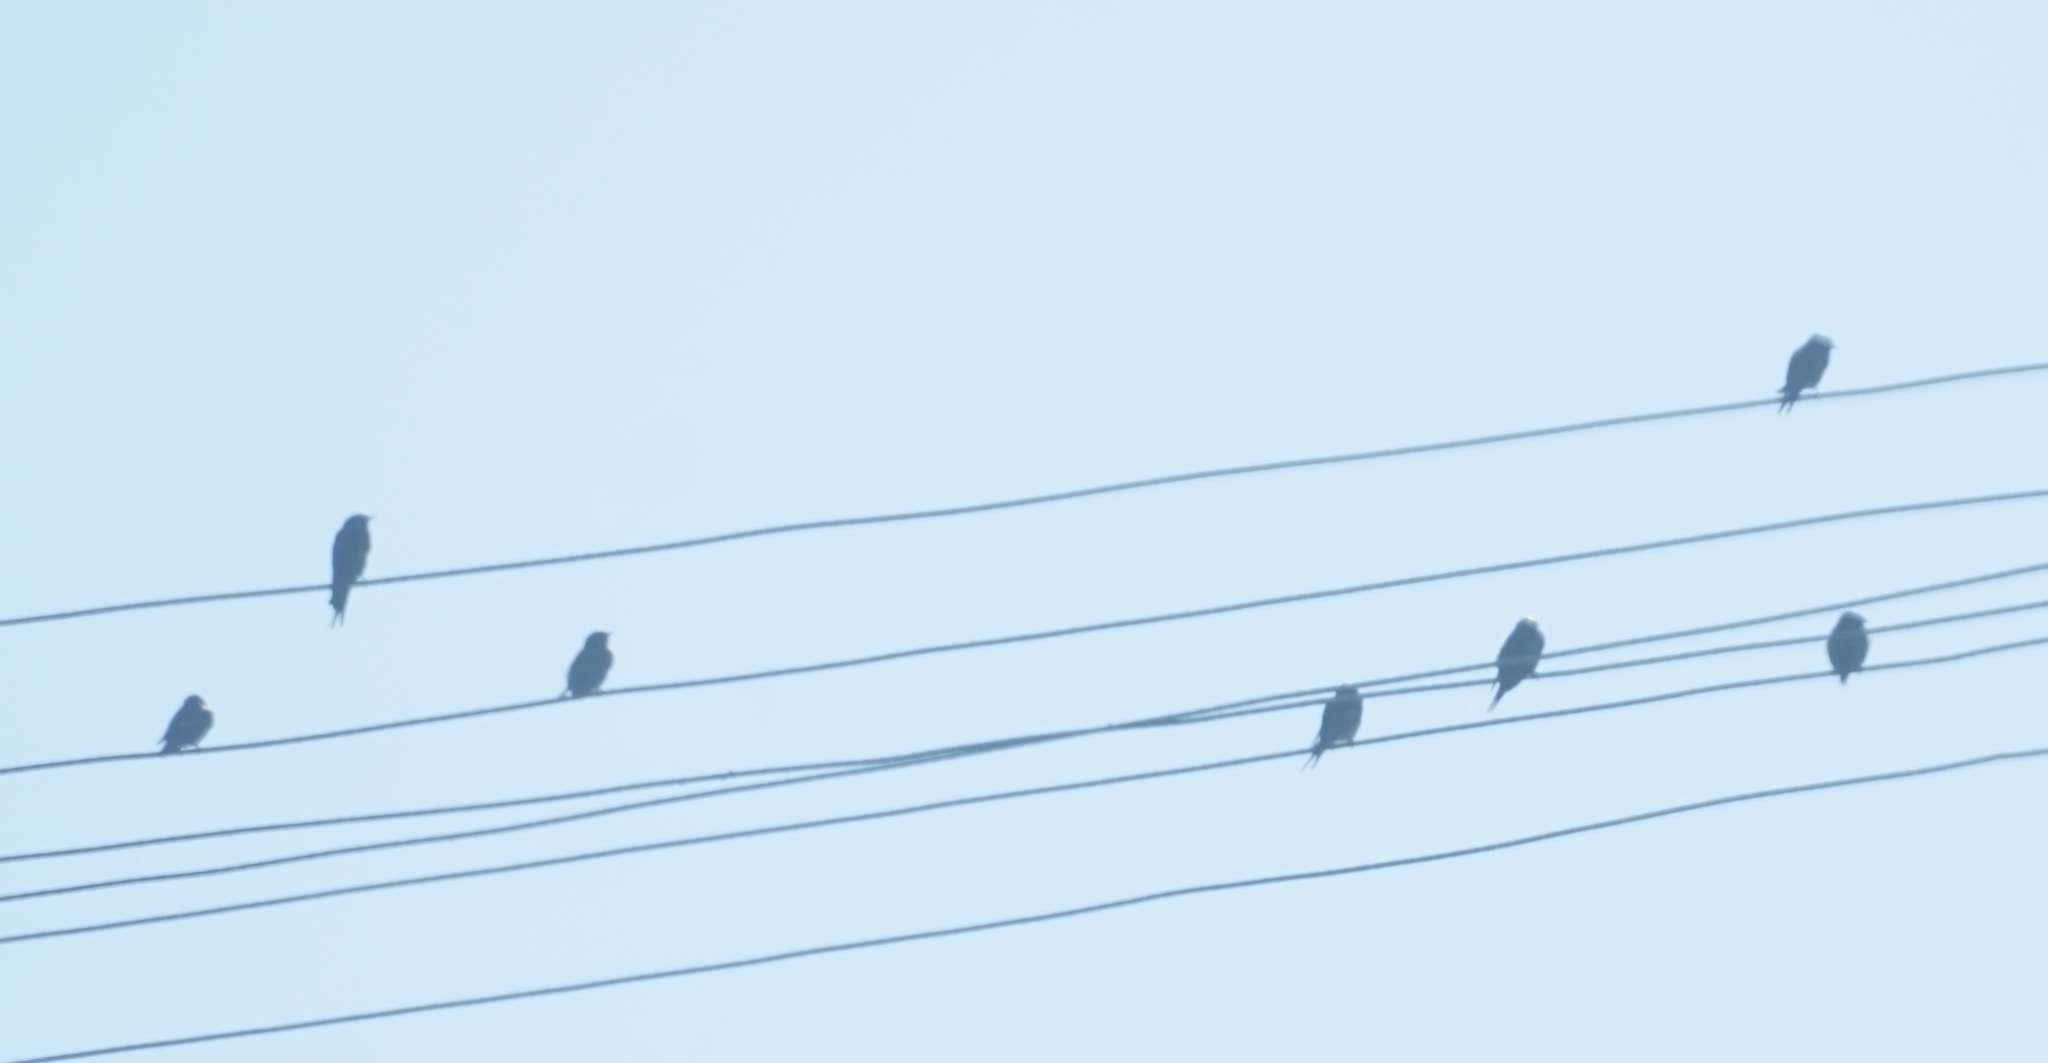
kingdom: Animalia
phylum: Chordata
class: Aves
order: Passeriformes
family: Hirundinidae
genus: Hirundo
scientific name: Hirundo neoxena
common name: Welcome swallow
